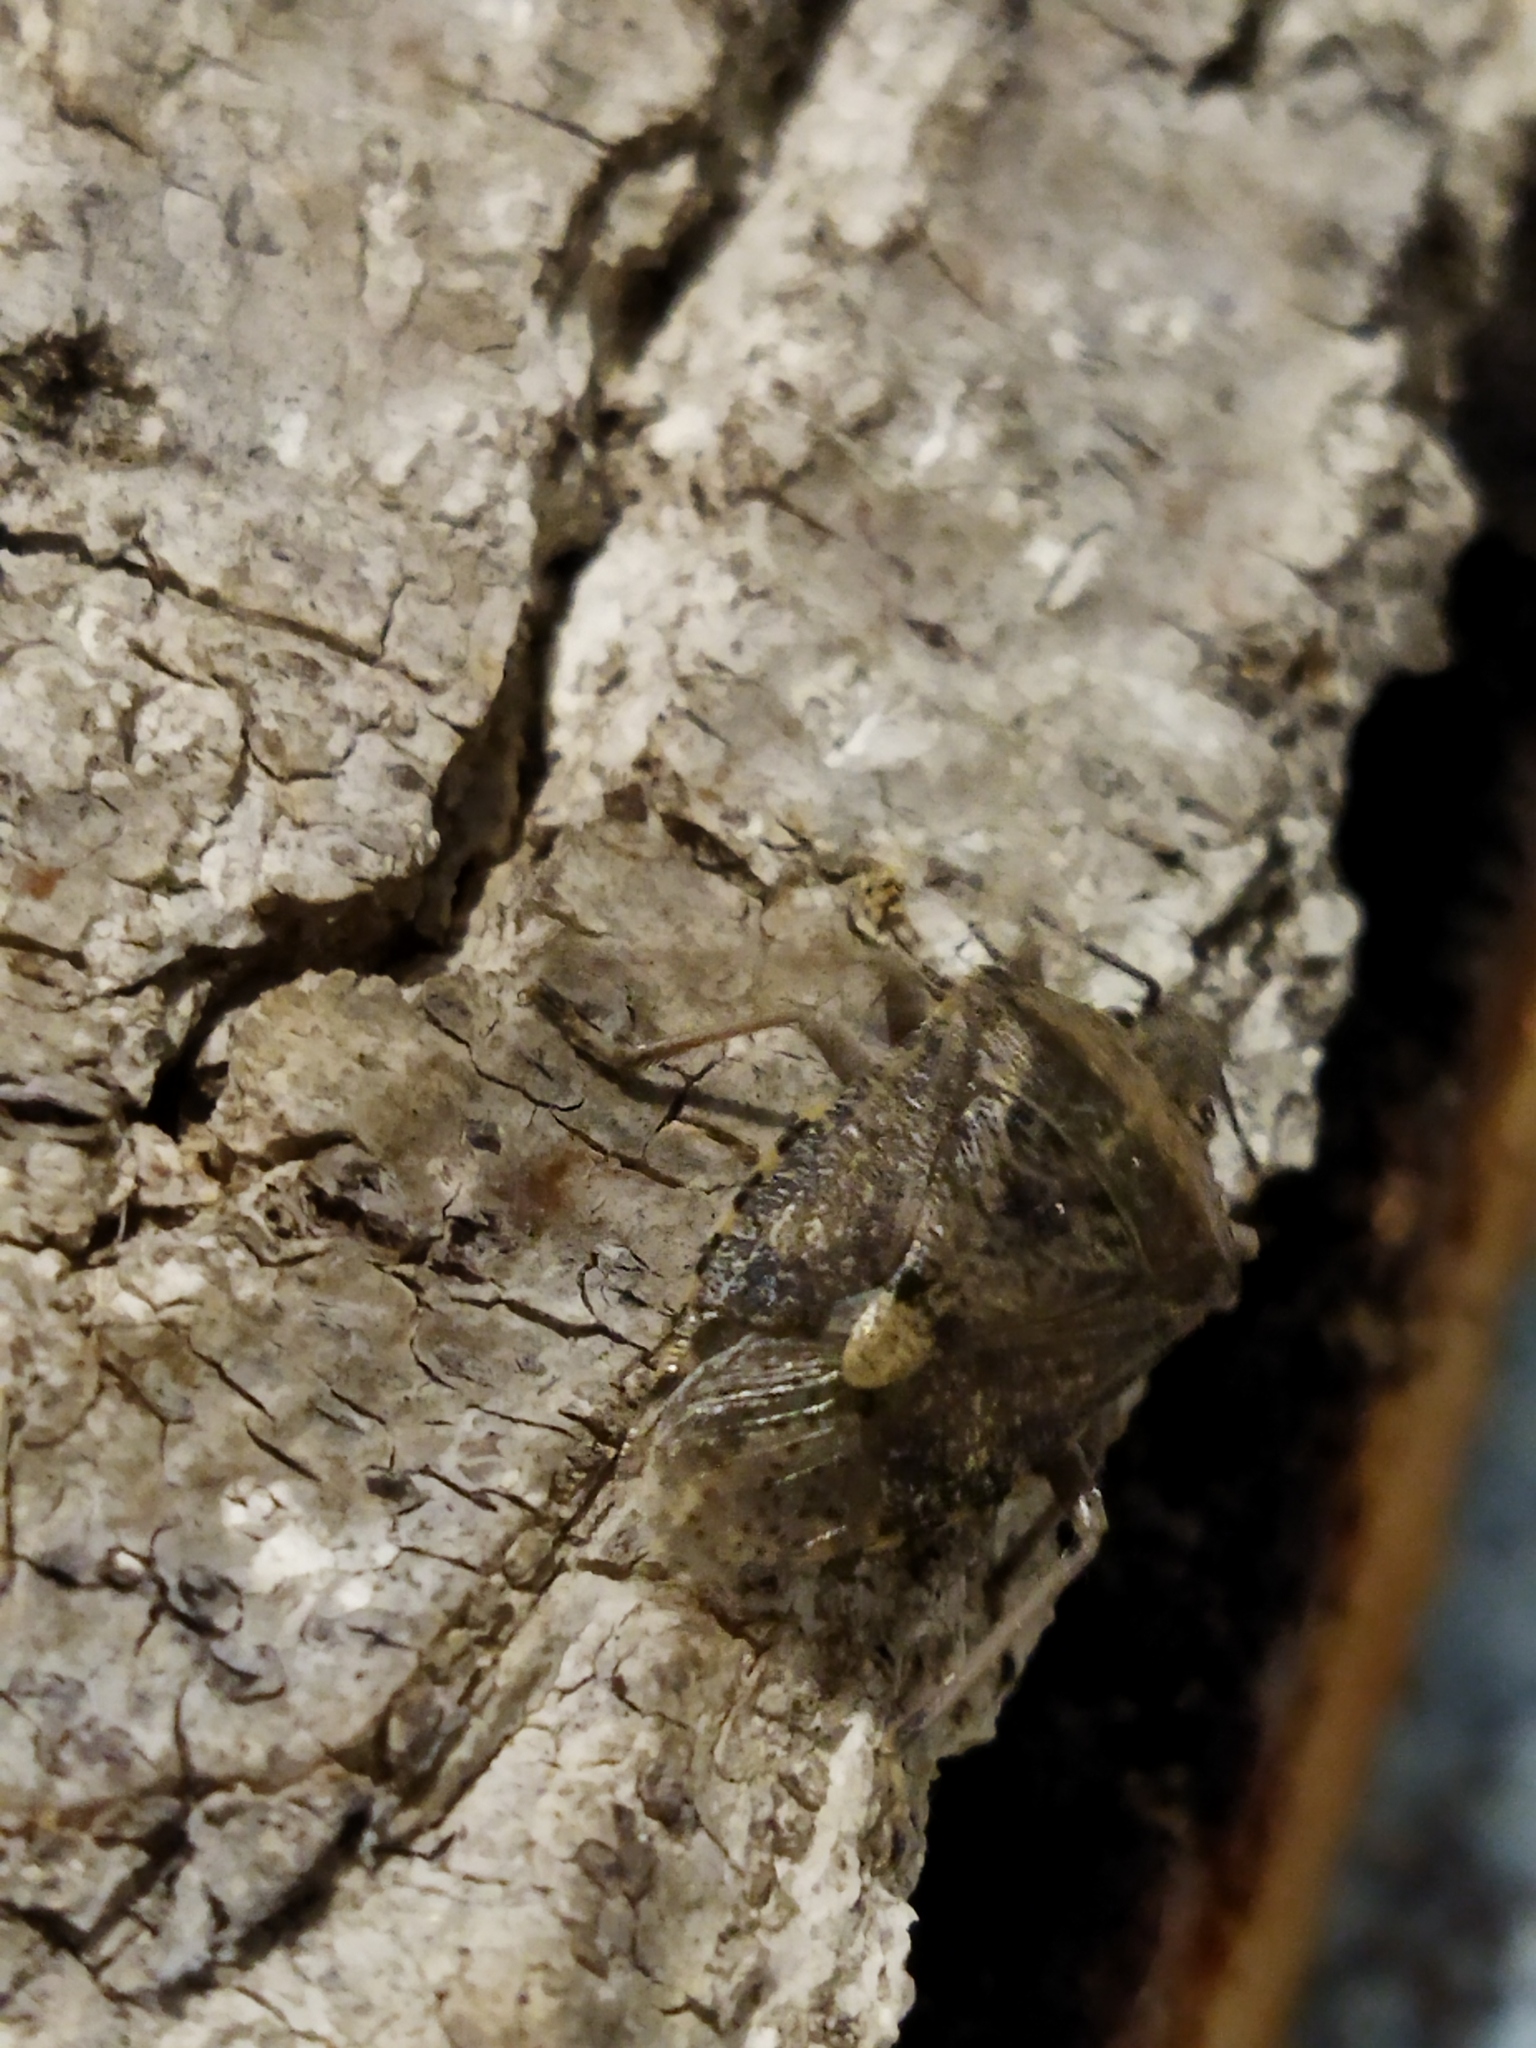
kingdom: Animalia
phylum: Arthropoda
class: Insecta
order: Hemiptera
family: Pentatomidae
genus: Rhaphigaster
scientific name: Rhaphigaster nebulosa
